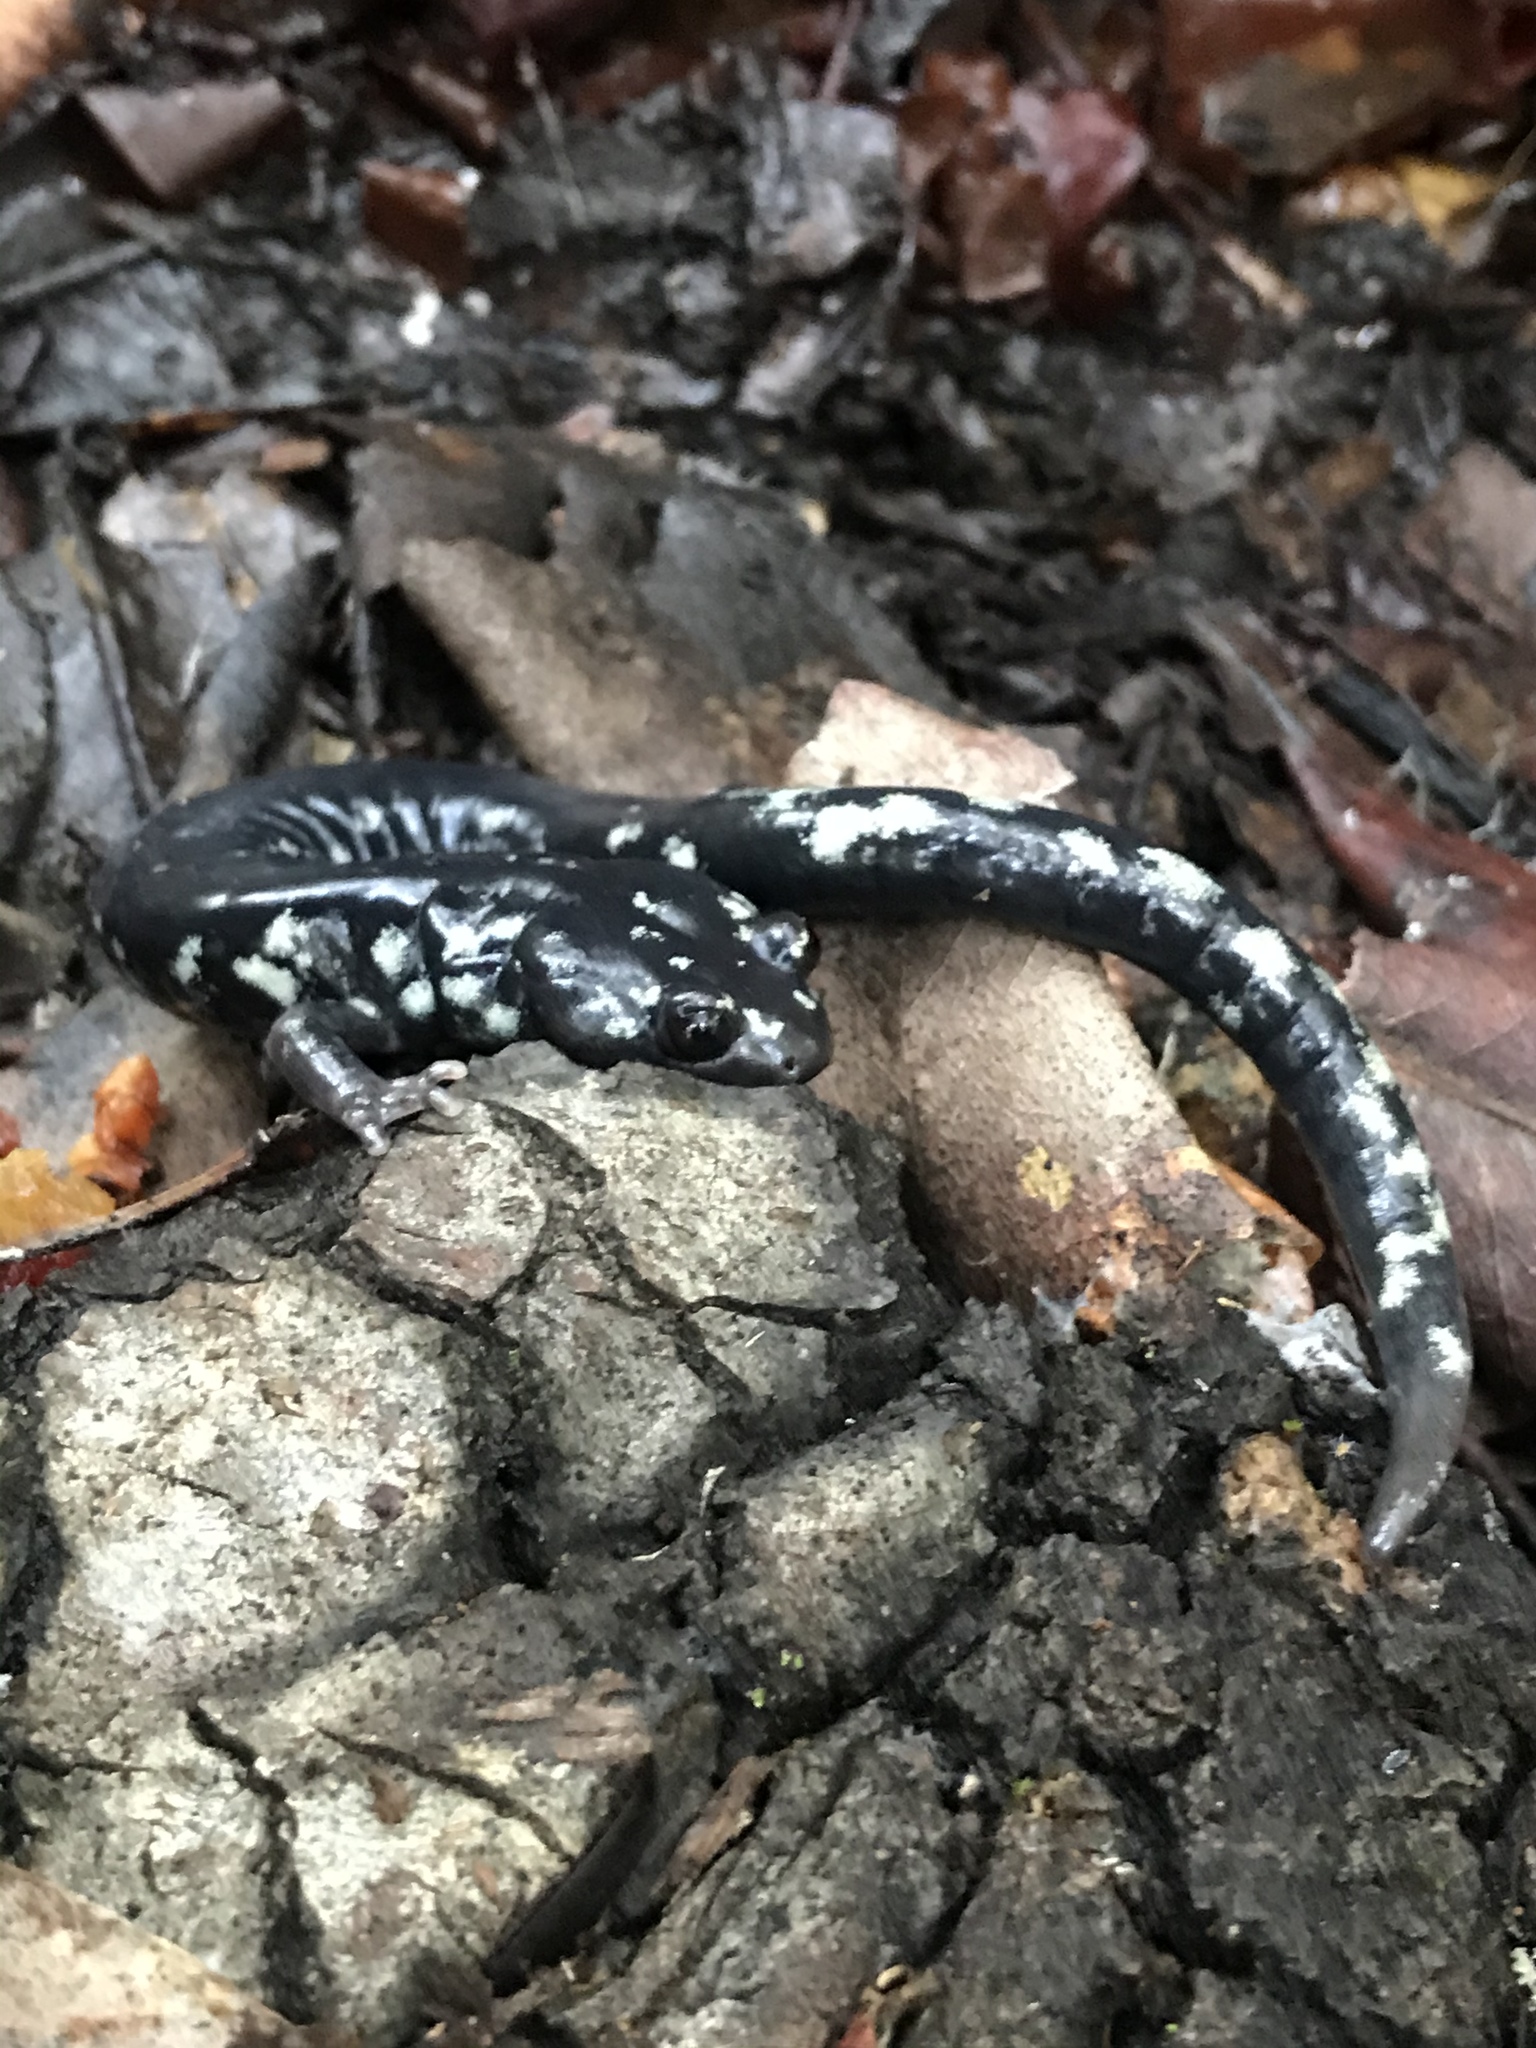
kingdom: Animalia
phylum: Chordata
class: Amphibia
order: Caudata
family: Plethodontidae
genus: Aneides
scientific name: Aneides flavipunctatus
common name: Black salamander
